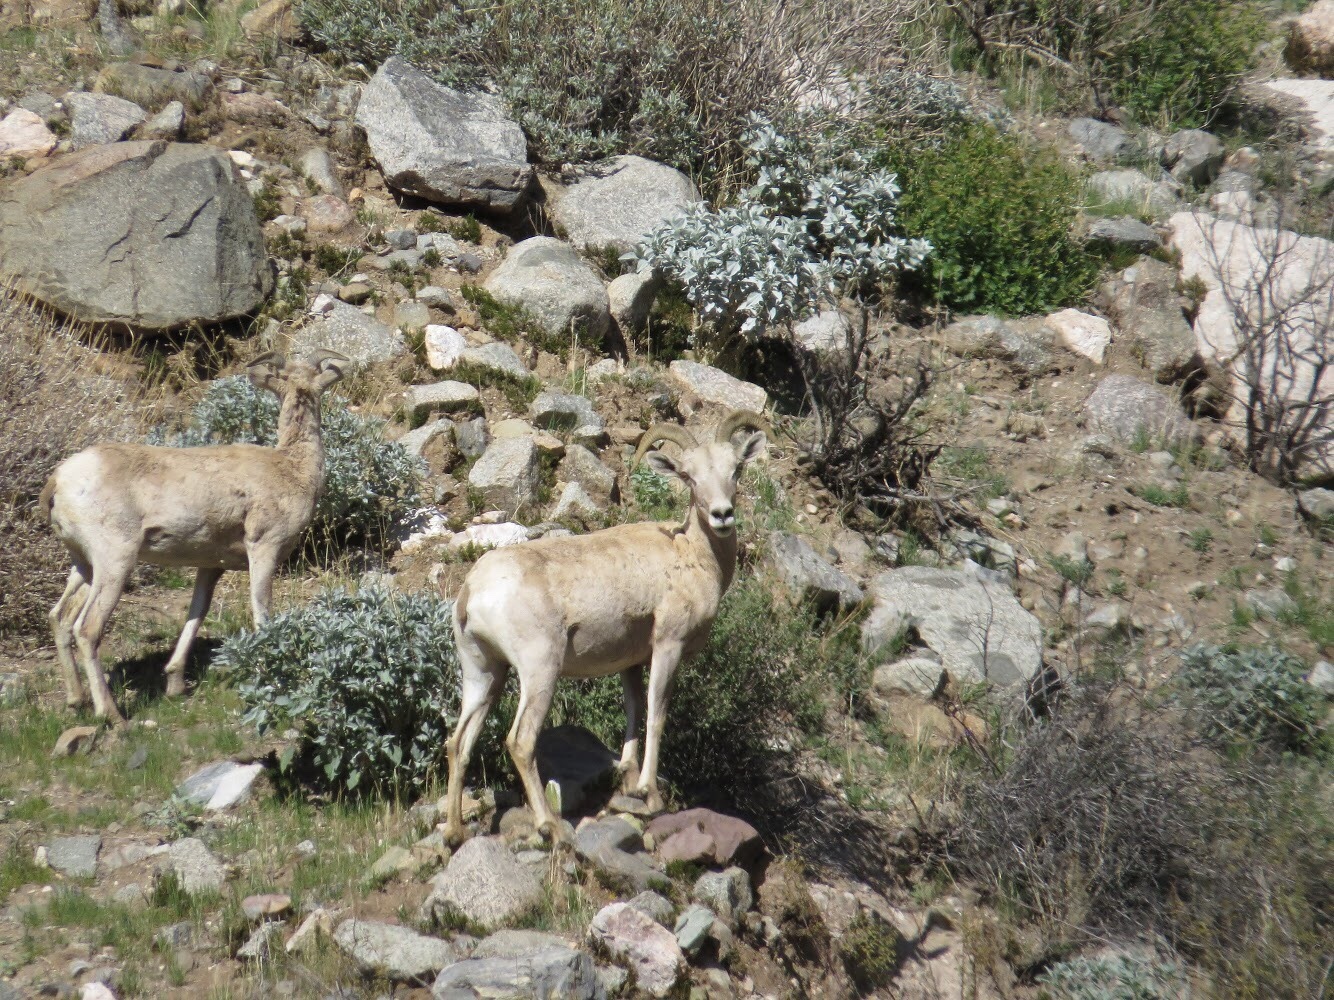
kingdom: Animalia
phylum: Chordata
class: Mammalia
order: Artiodactyla
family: Bovidae
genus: Ovis
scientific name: Ovis canadensis
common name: Bighorn sheep
